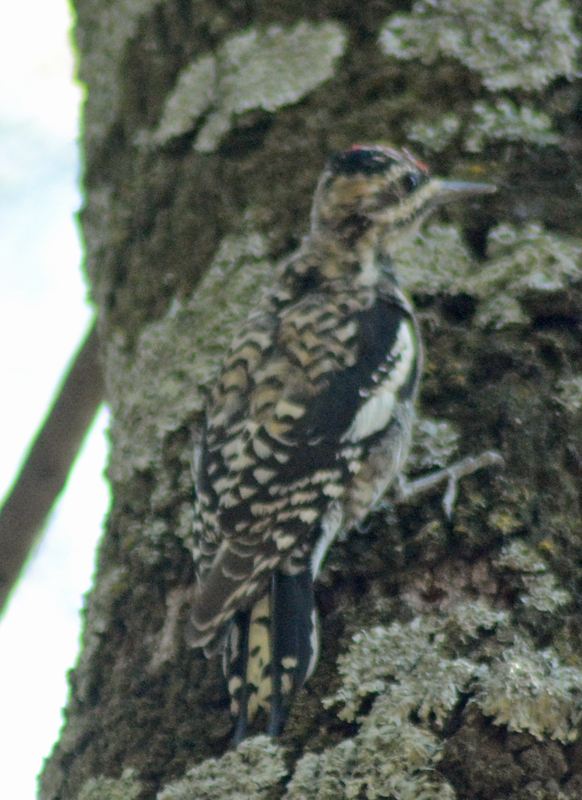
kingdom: Animalia
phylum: Chordata
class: Aves
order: Piciformes
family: Picidae
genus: Sphyrapicus
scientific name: Sphyrapicus varius
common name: Yellow-bellied sapsucker
